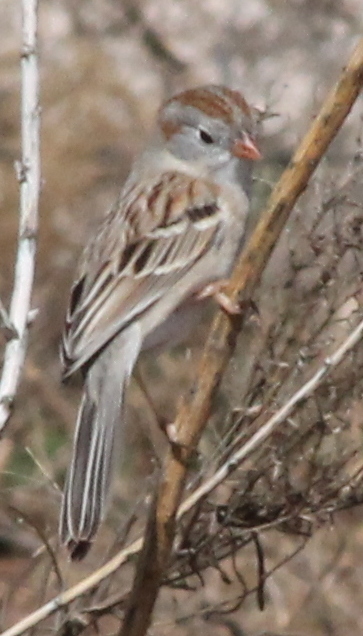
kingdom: Animalia
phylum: Chordata
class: Aves
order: Passeriformes
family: Passerellidae
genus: Spizella
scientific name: Spizella pusilla
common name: Field sparrow
